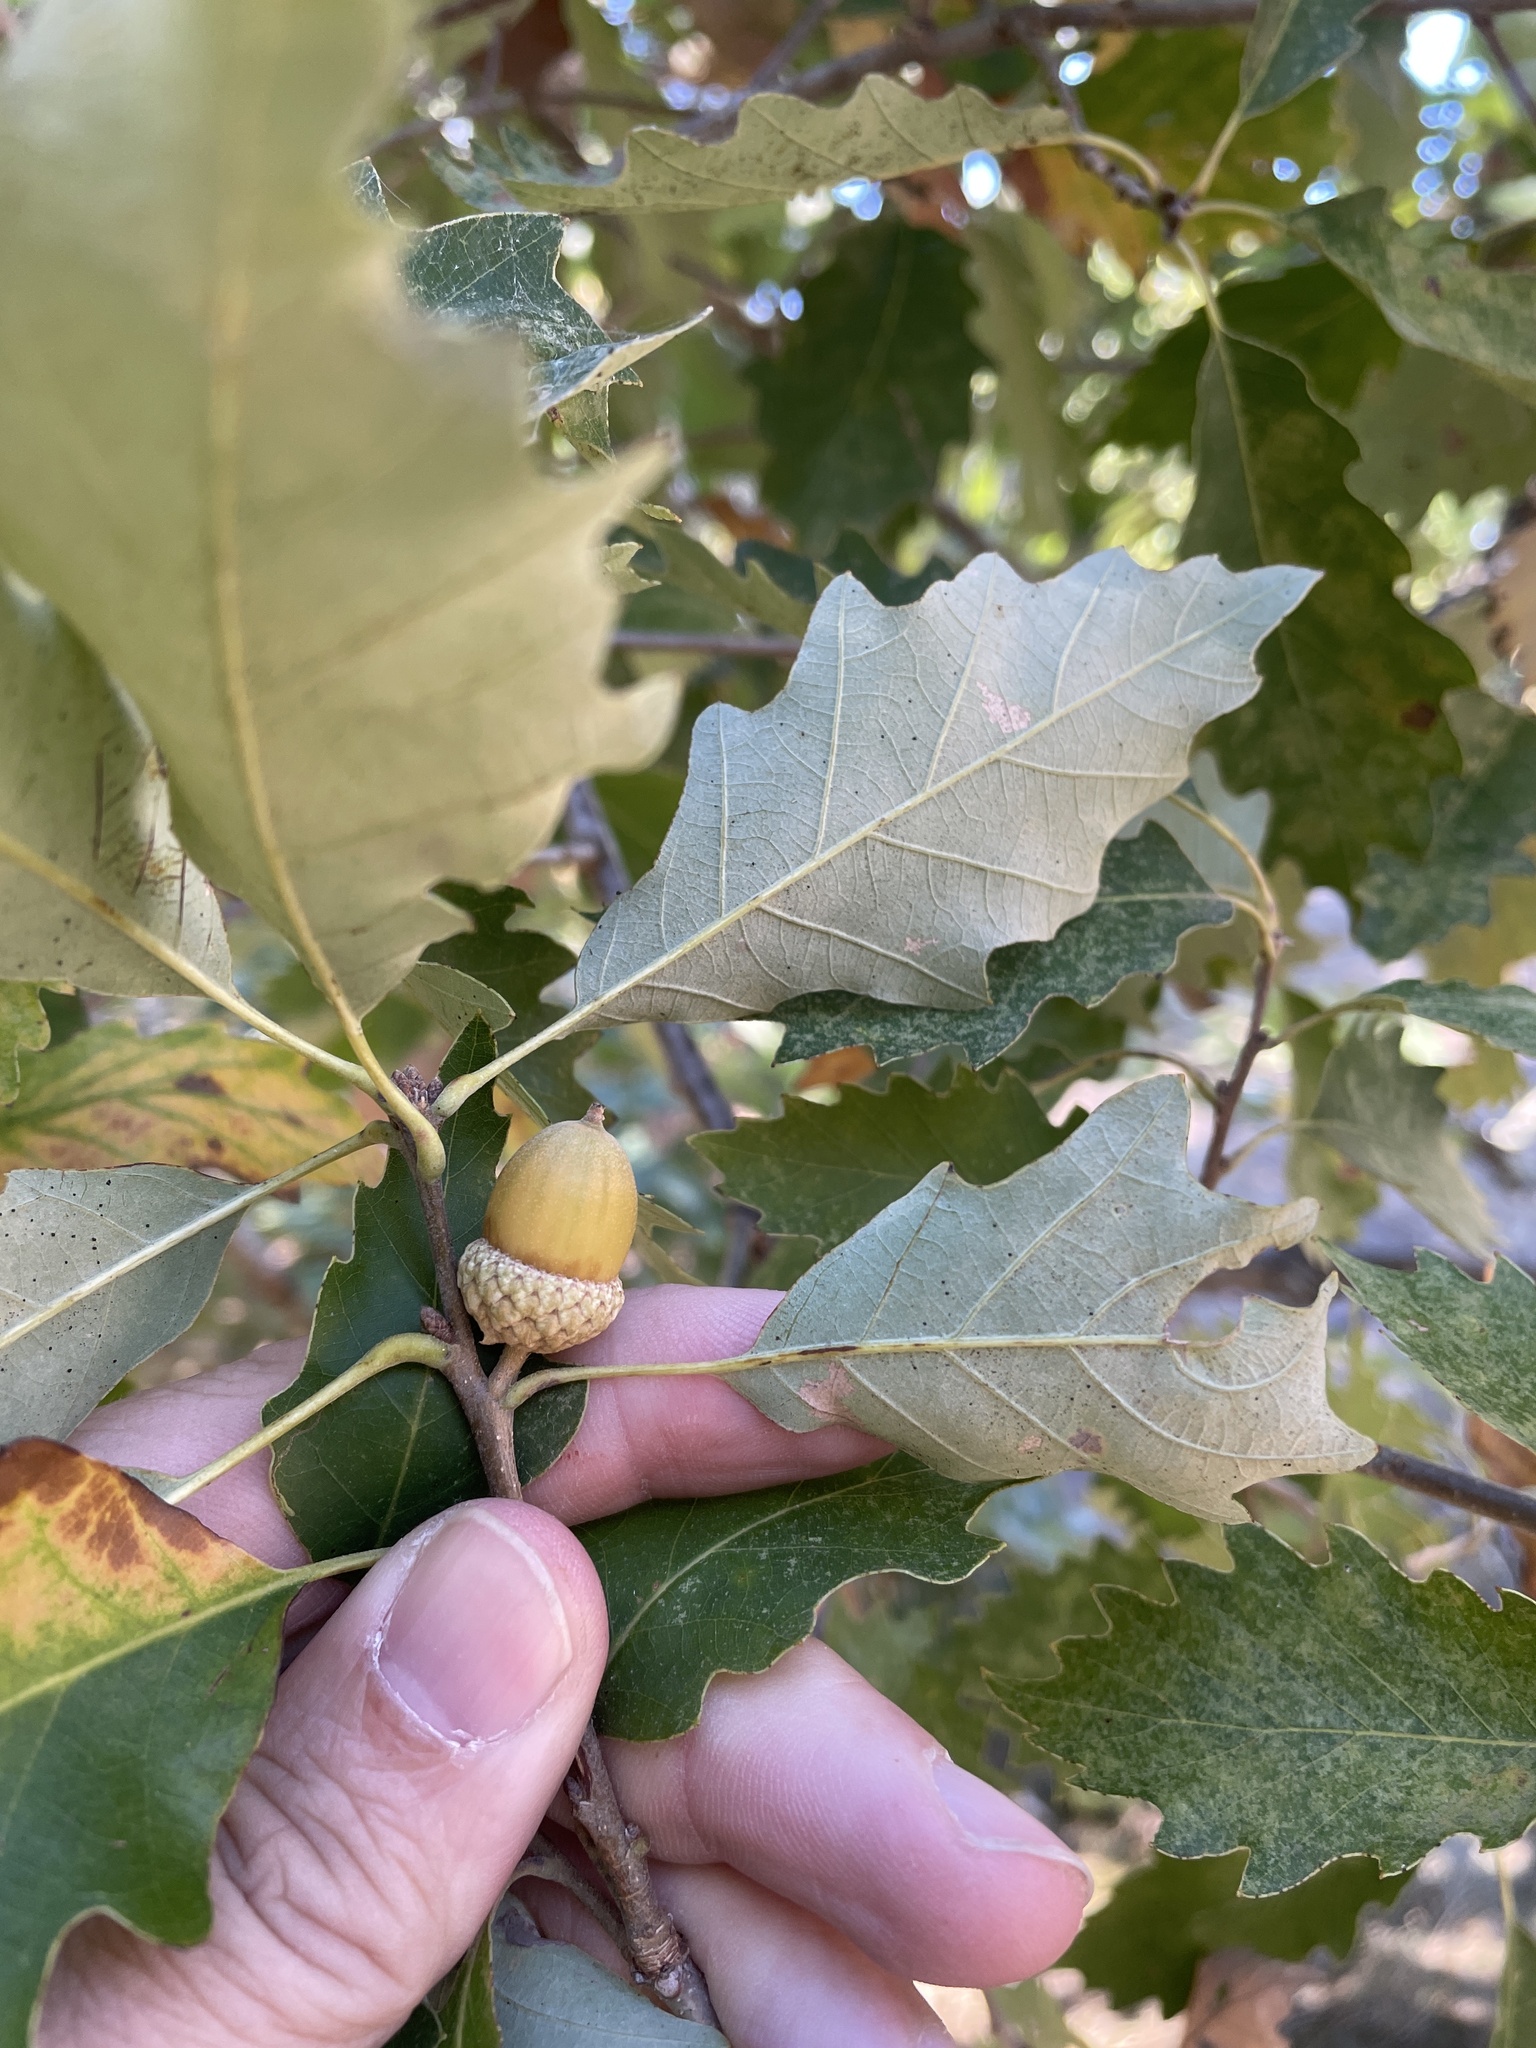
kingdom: Plantae
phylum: Tracheophyta
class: Magnoliopsida
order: Fagales
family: Fagaceae
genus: Quercus
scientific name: Quercus bicolor
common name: Swamp white oak
